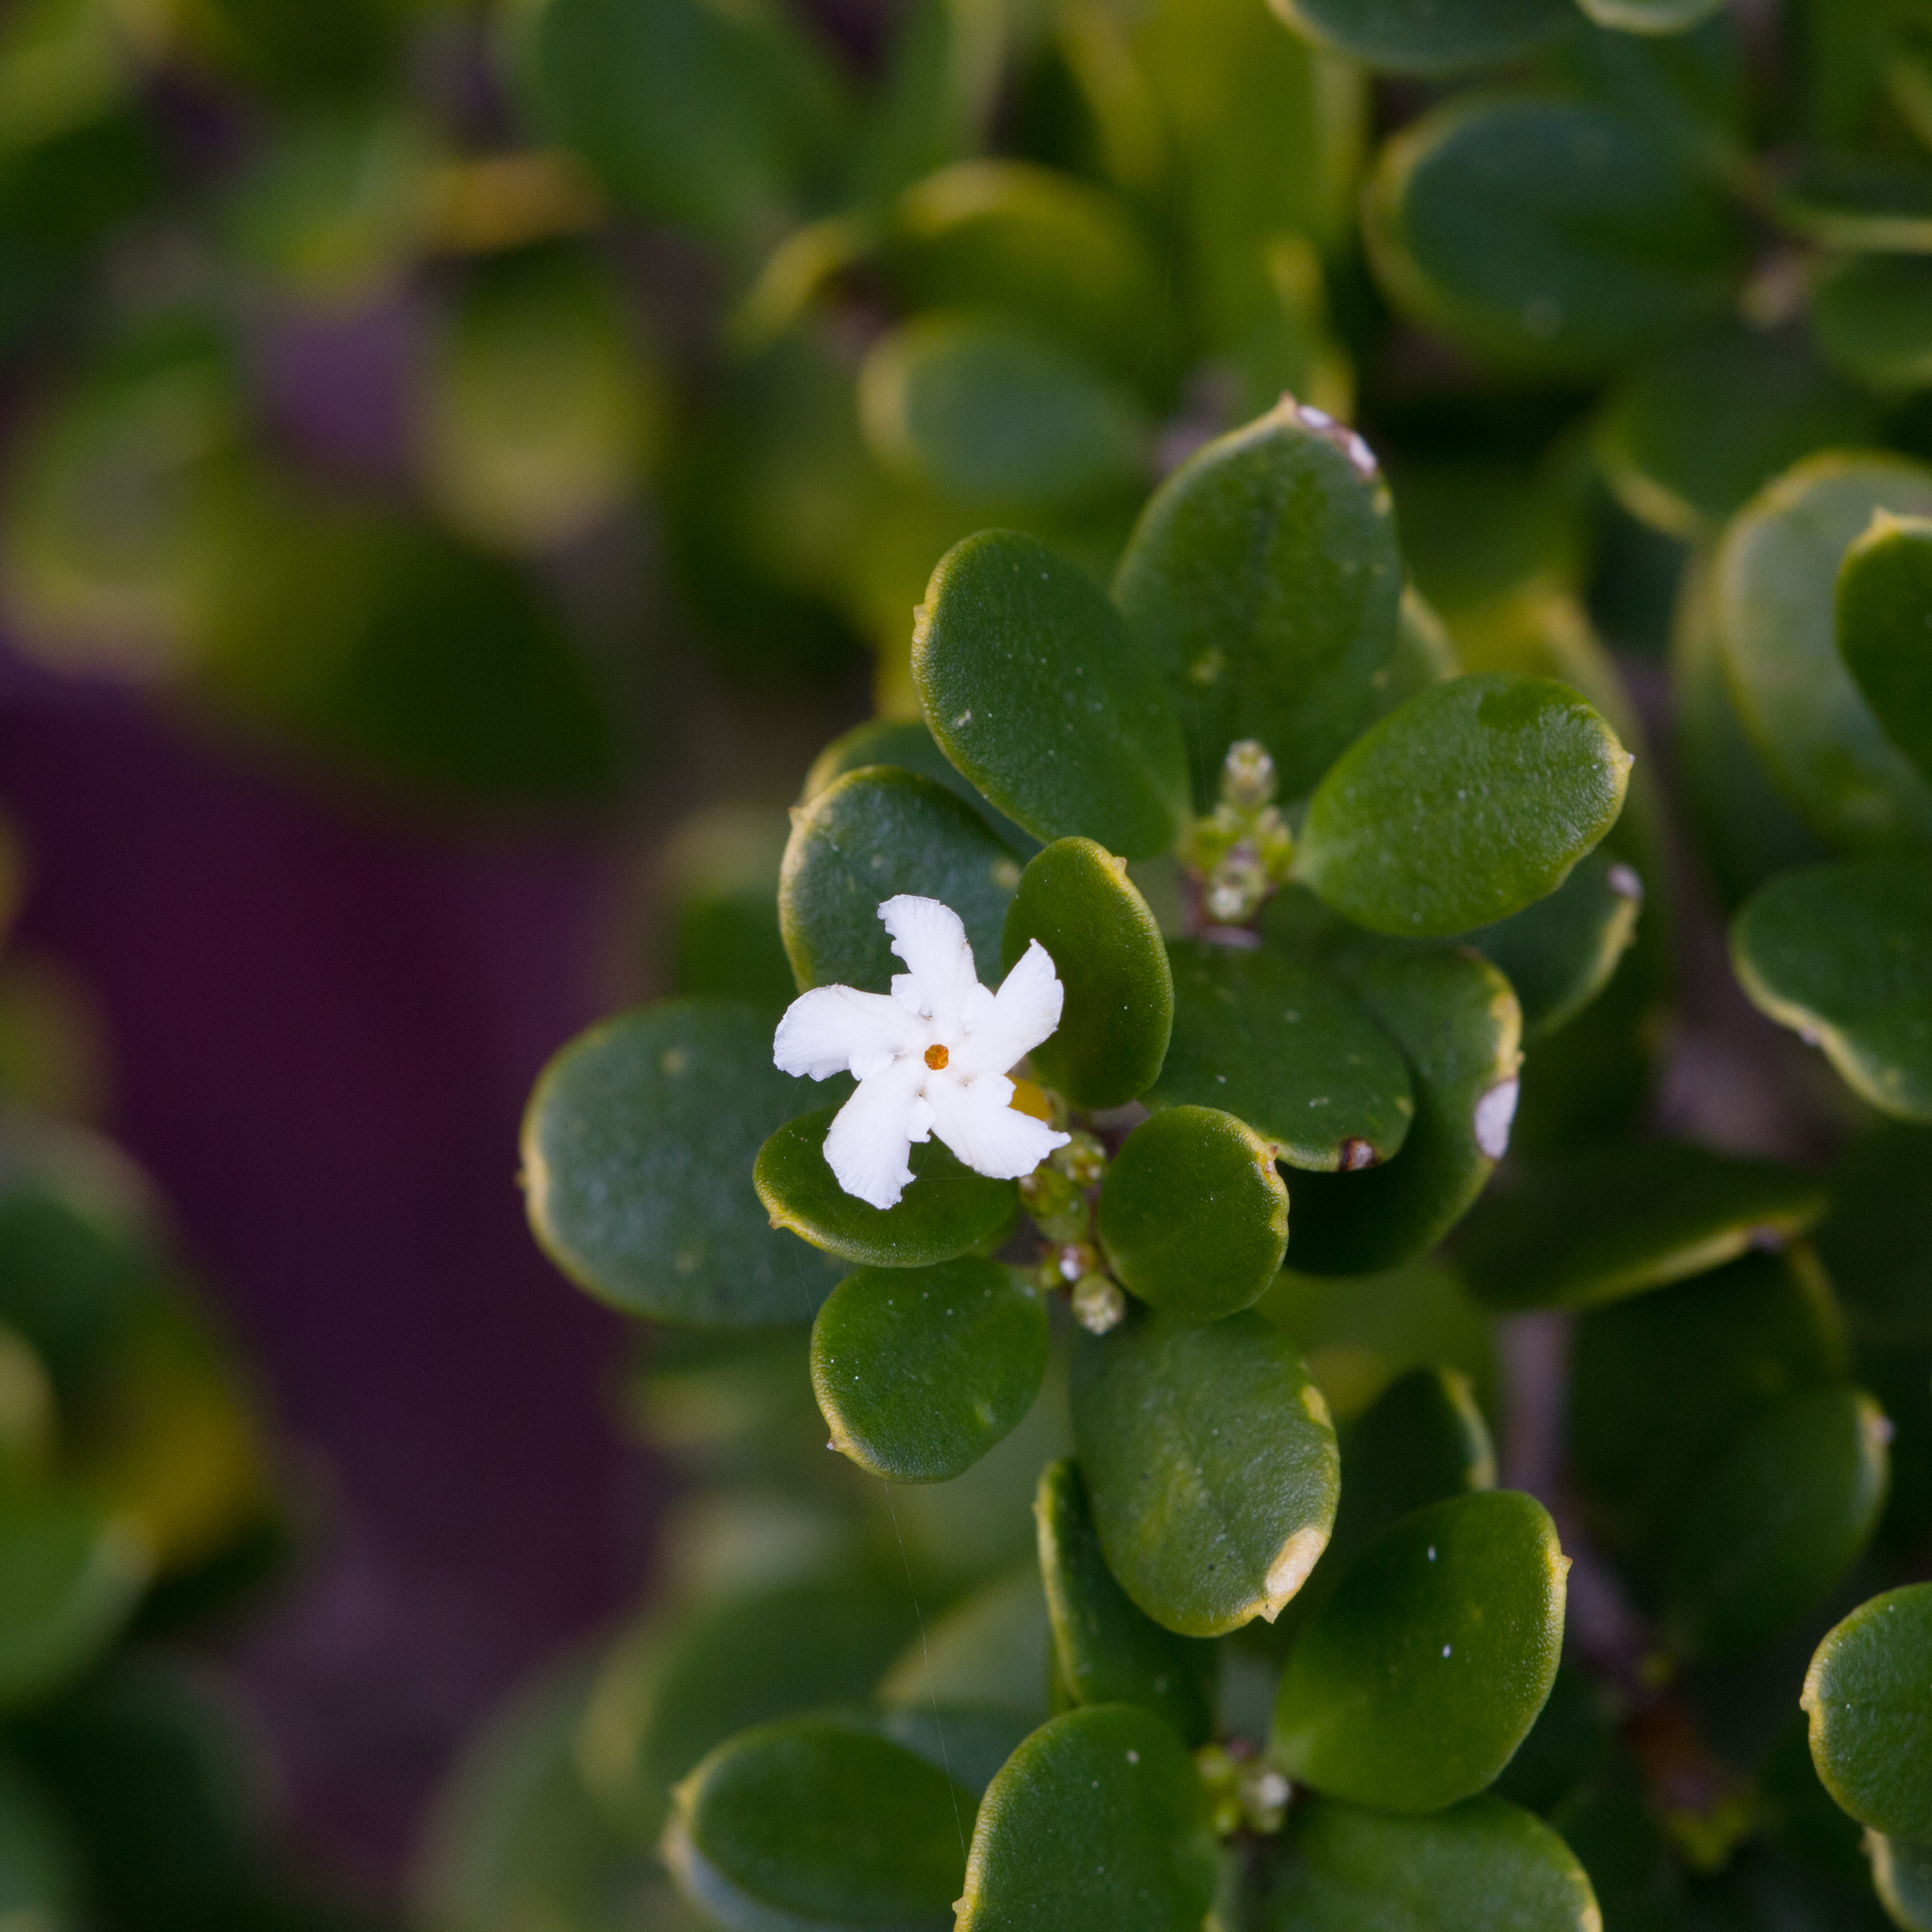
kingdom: Plantae
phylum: Tracheophyta
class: Magnoliopsida
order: Gentianales
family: Apocynaceae
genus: Alyxia
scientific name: Alyxia buxifolia
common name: Dysentery-bush
